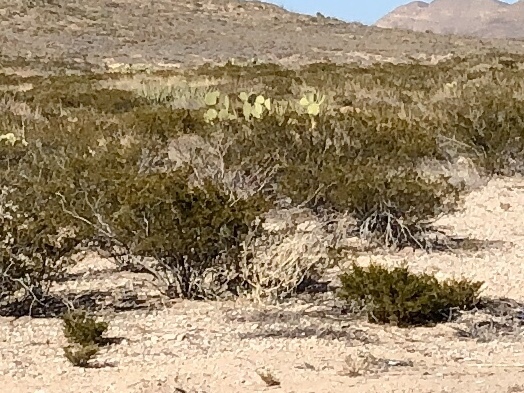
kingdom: Plantae
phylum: Tracheophyta
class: Magnoliopsida
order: Zygophyllales
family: Zygophyllaceae
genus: Larrea
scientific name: Larrea tridentata
